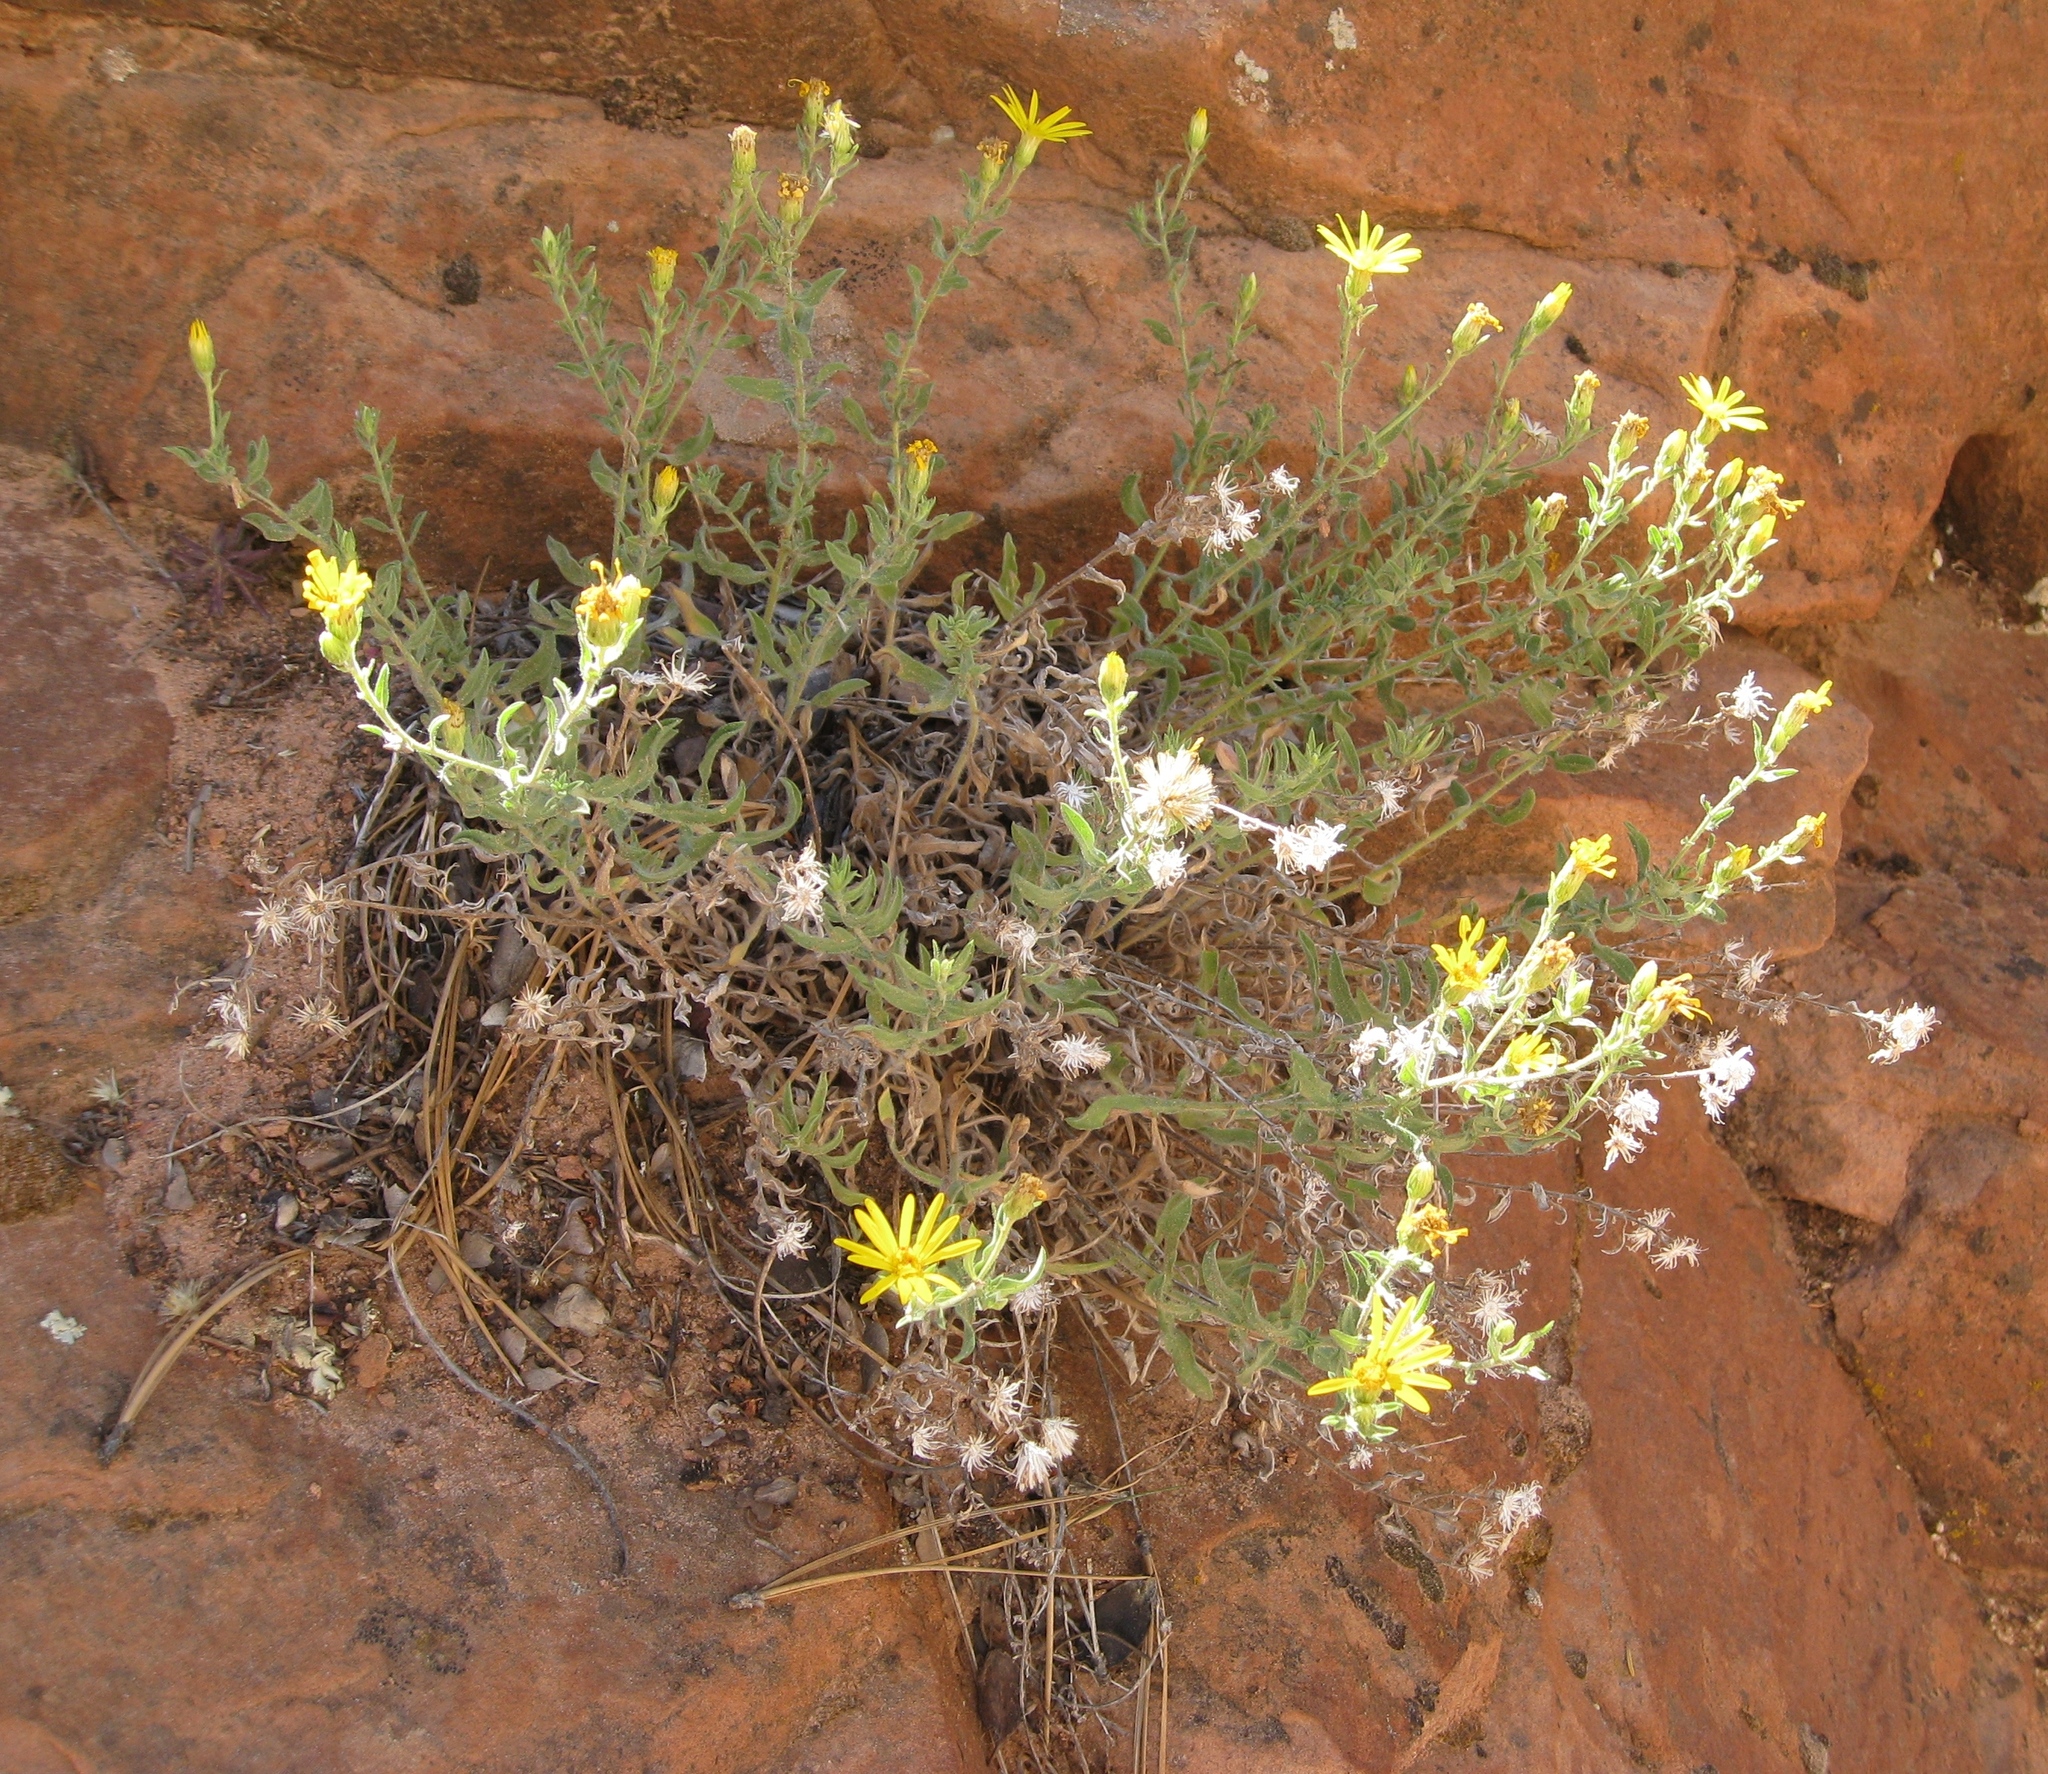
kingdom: Plantae
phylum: Tracheophyta
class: Magnoliopsida
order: Asterales
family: Asteraceae
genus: Heterotheca
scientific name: Heterotheca polothrix
